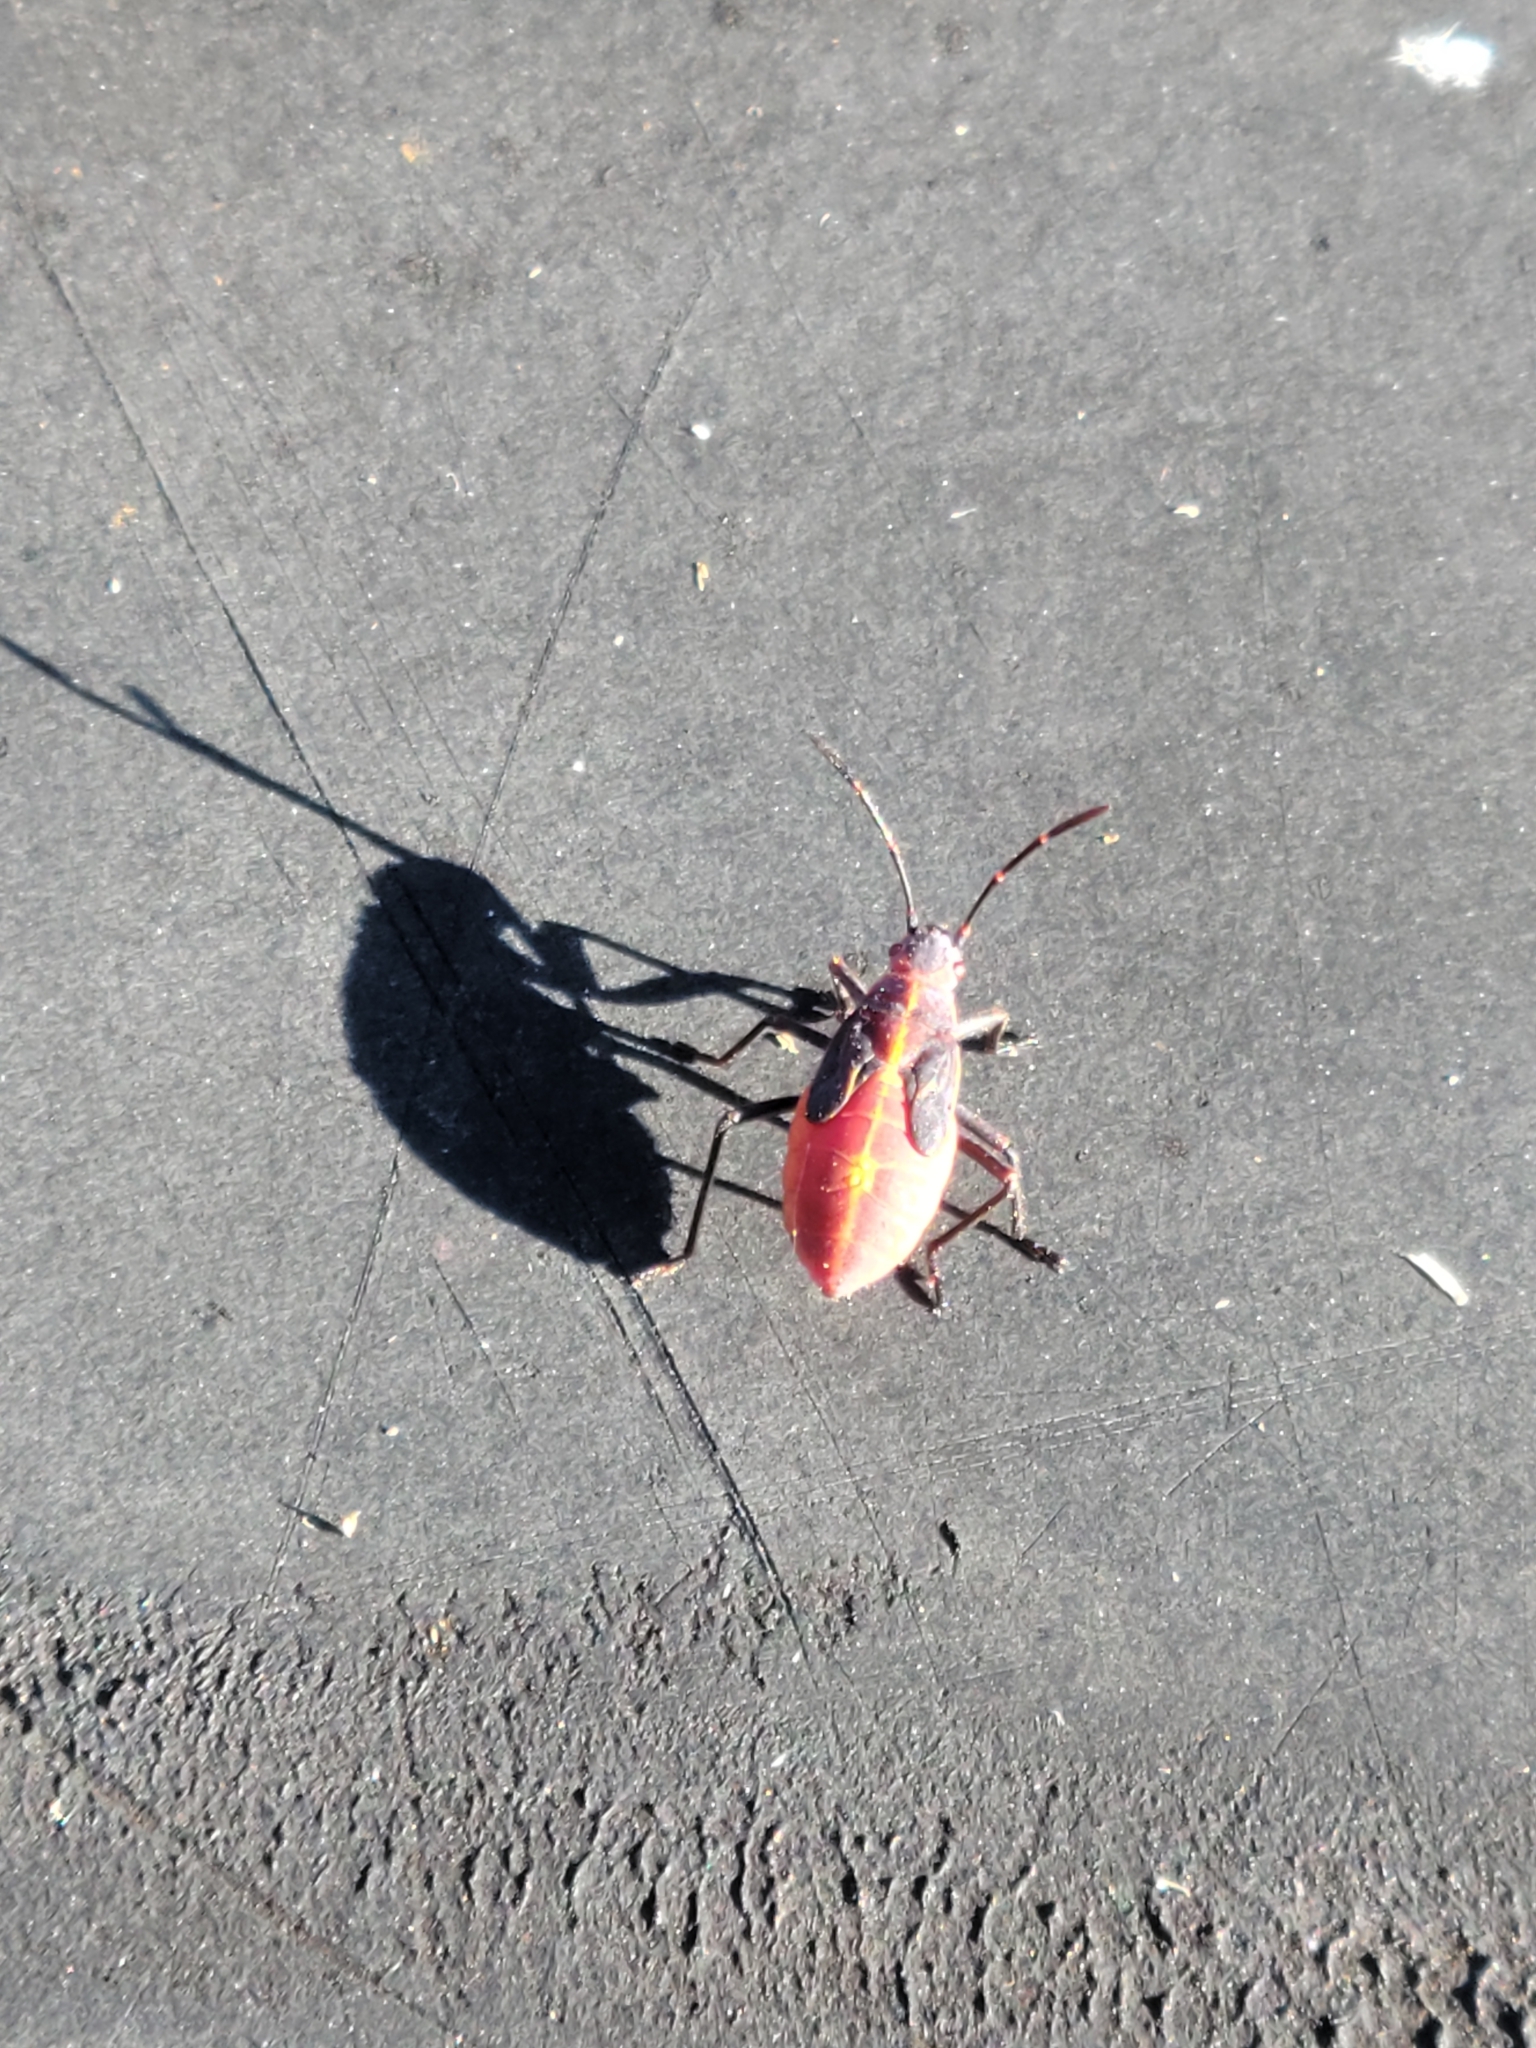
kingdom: Animalia
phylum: Arthropoda
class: Insecta
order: Hemiptera
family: Rhopalidae
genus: Boisea
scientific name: Boisea trivittata
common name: Boxelder bug
